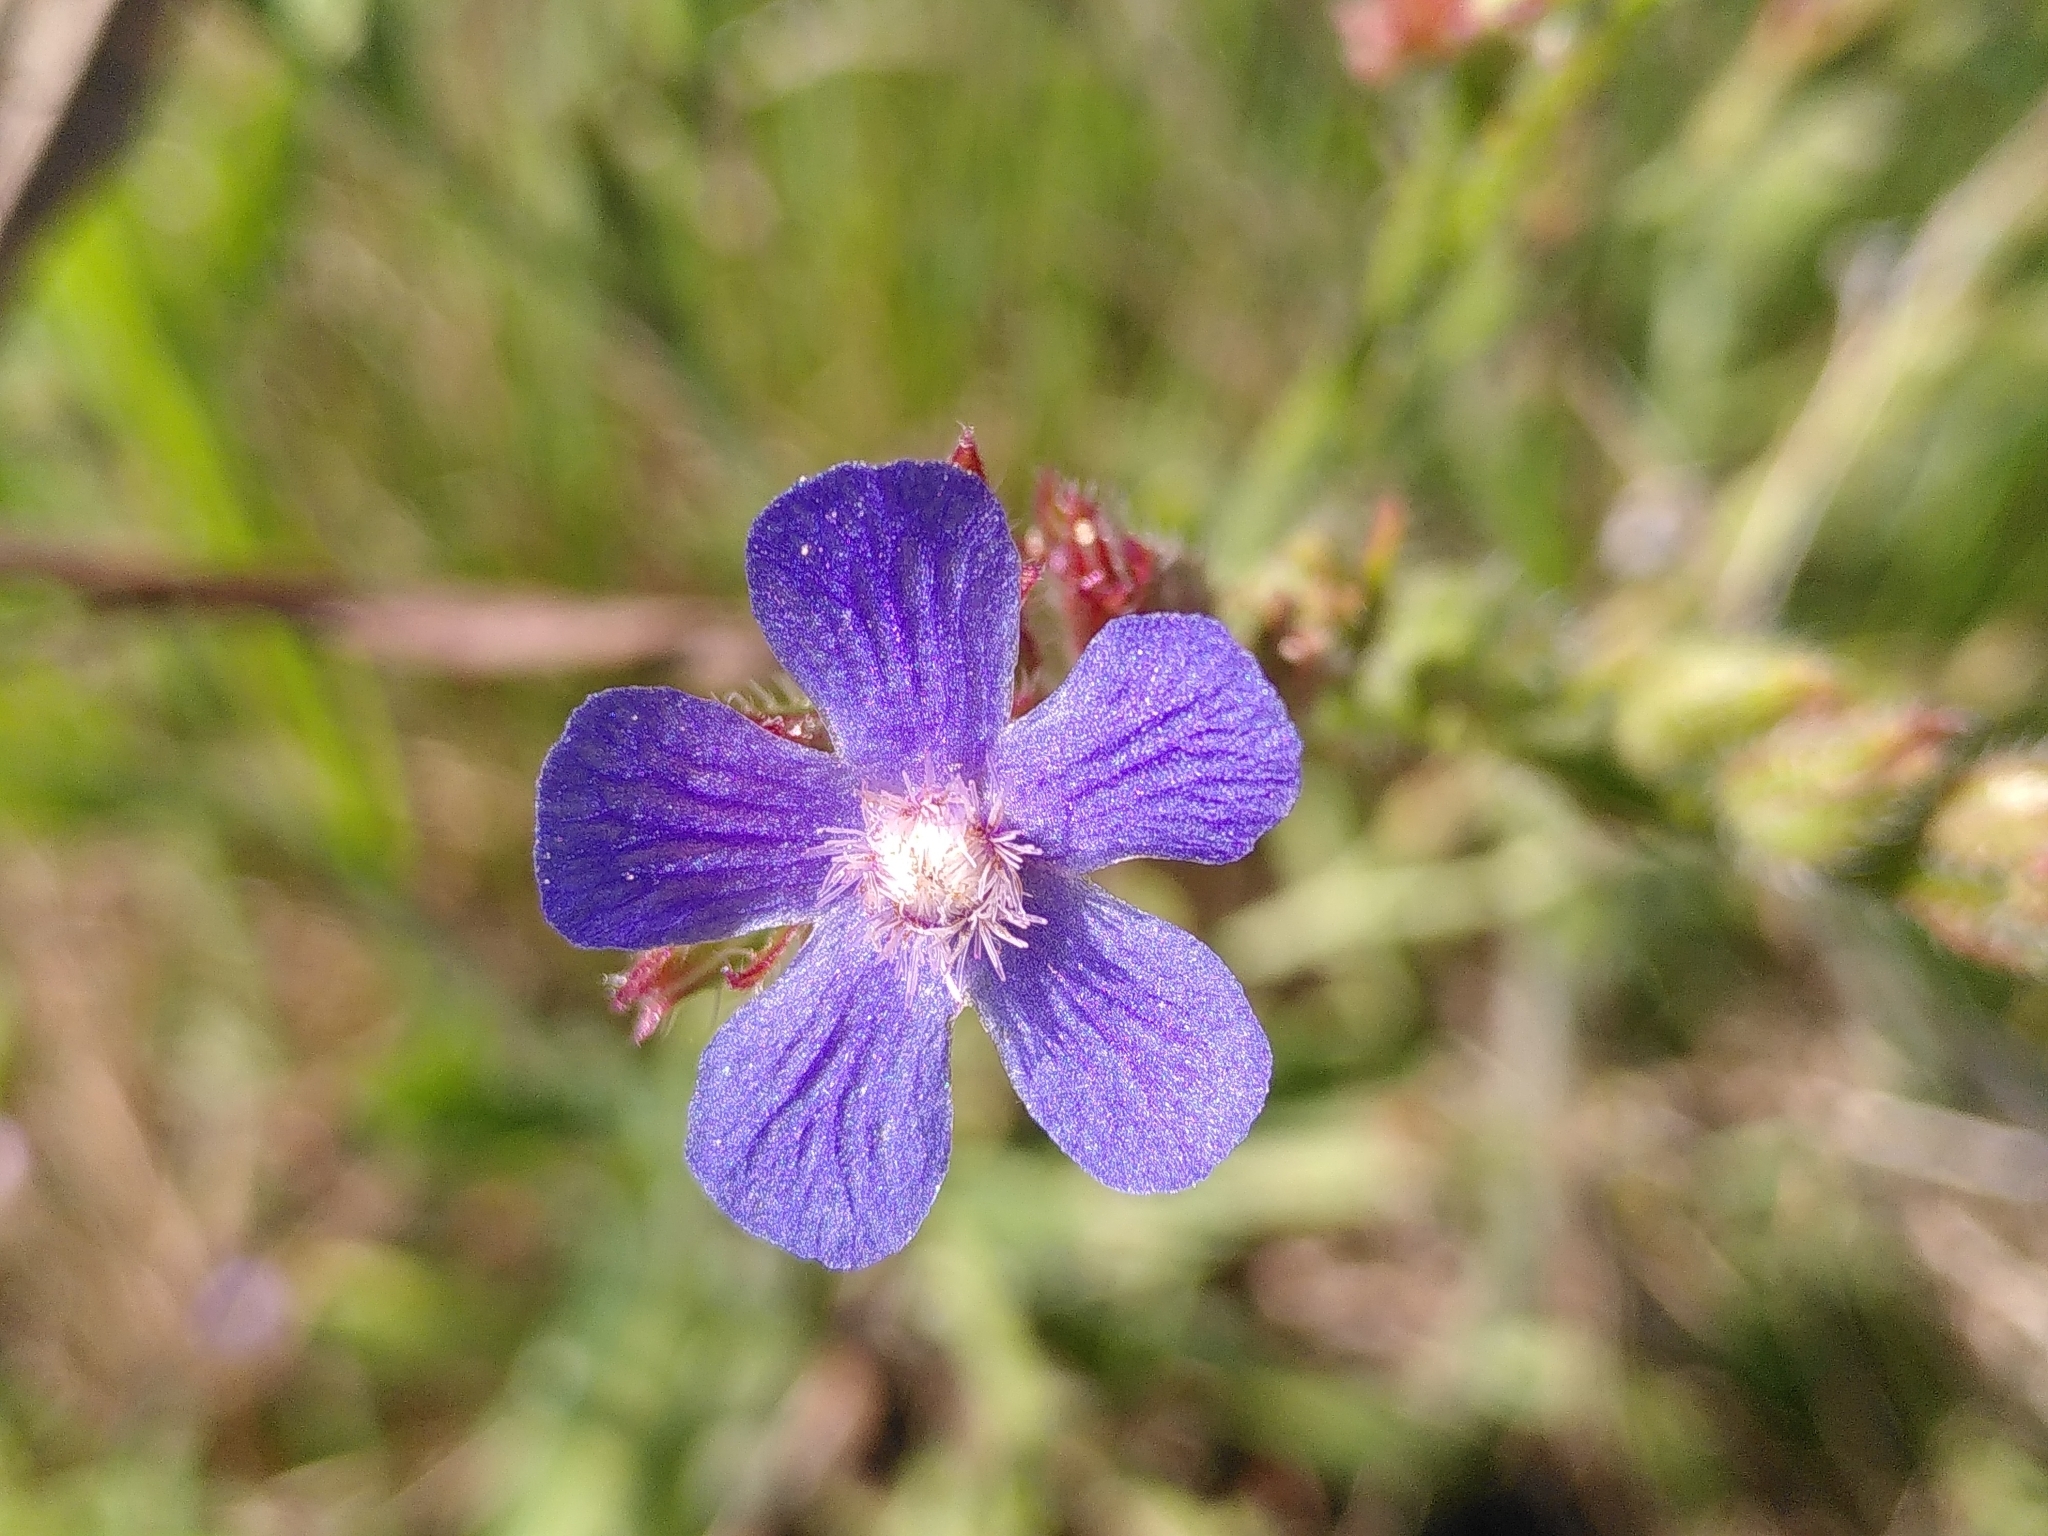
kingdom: Plantae
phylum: Tracheophyta
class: Magnoliopsida
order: Boraginales
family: Boraginaceae
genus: Anchusa
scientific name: Anchusa azurea
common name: Garden anchusa
